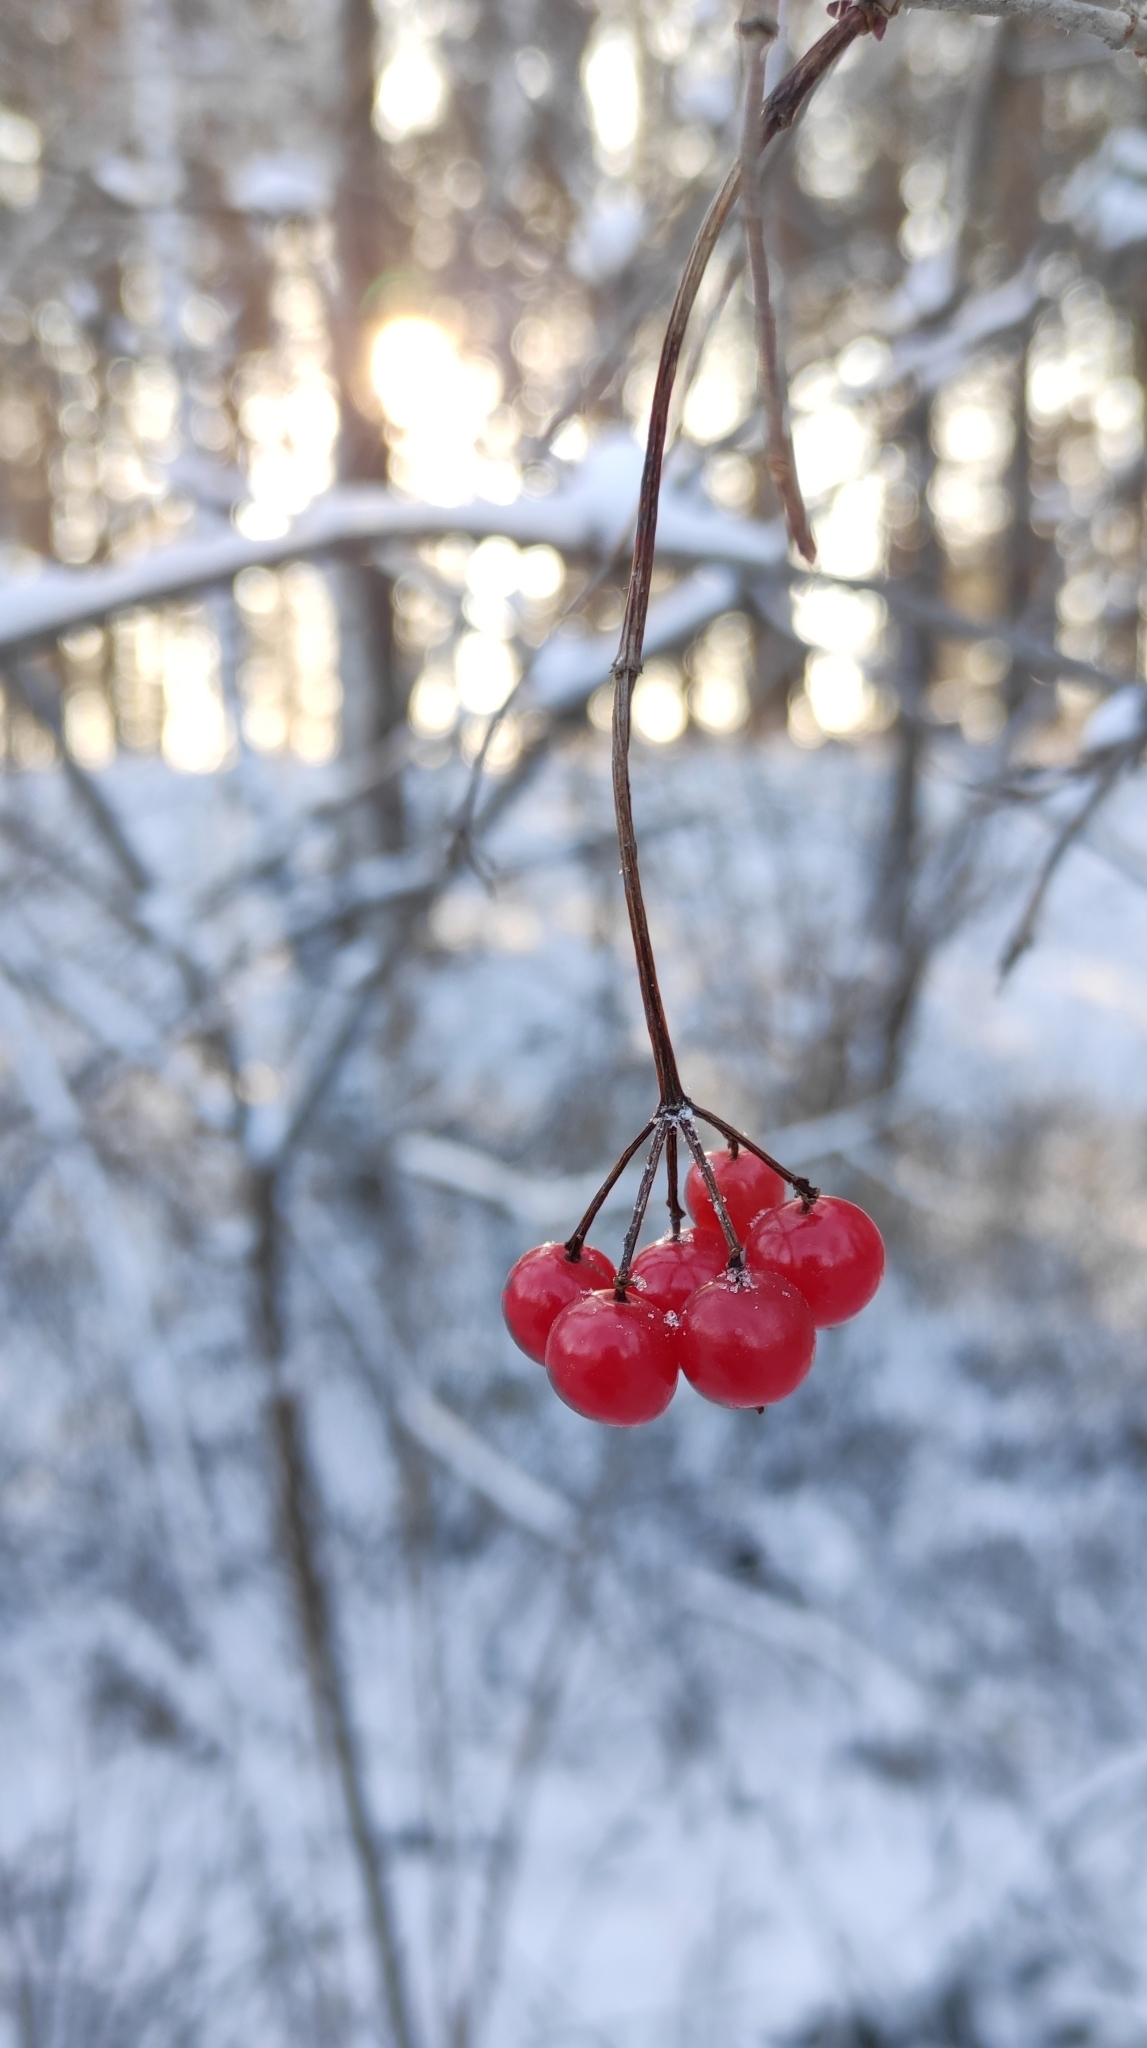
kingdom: Plantae
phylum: Tracheophyta
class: Magnoliopsida
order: Dipsacales
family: Viburnaceae
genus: Viburnum
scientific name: Viburnum opulus
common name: Guelder-rose
